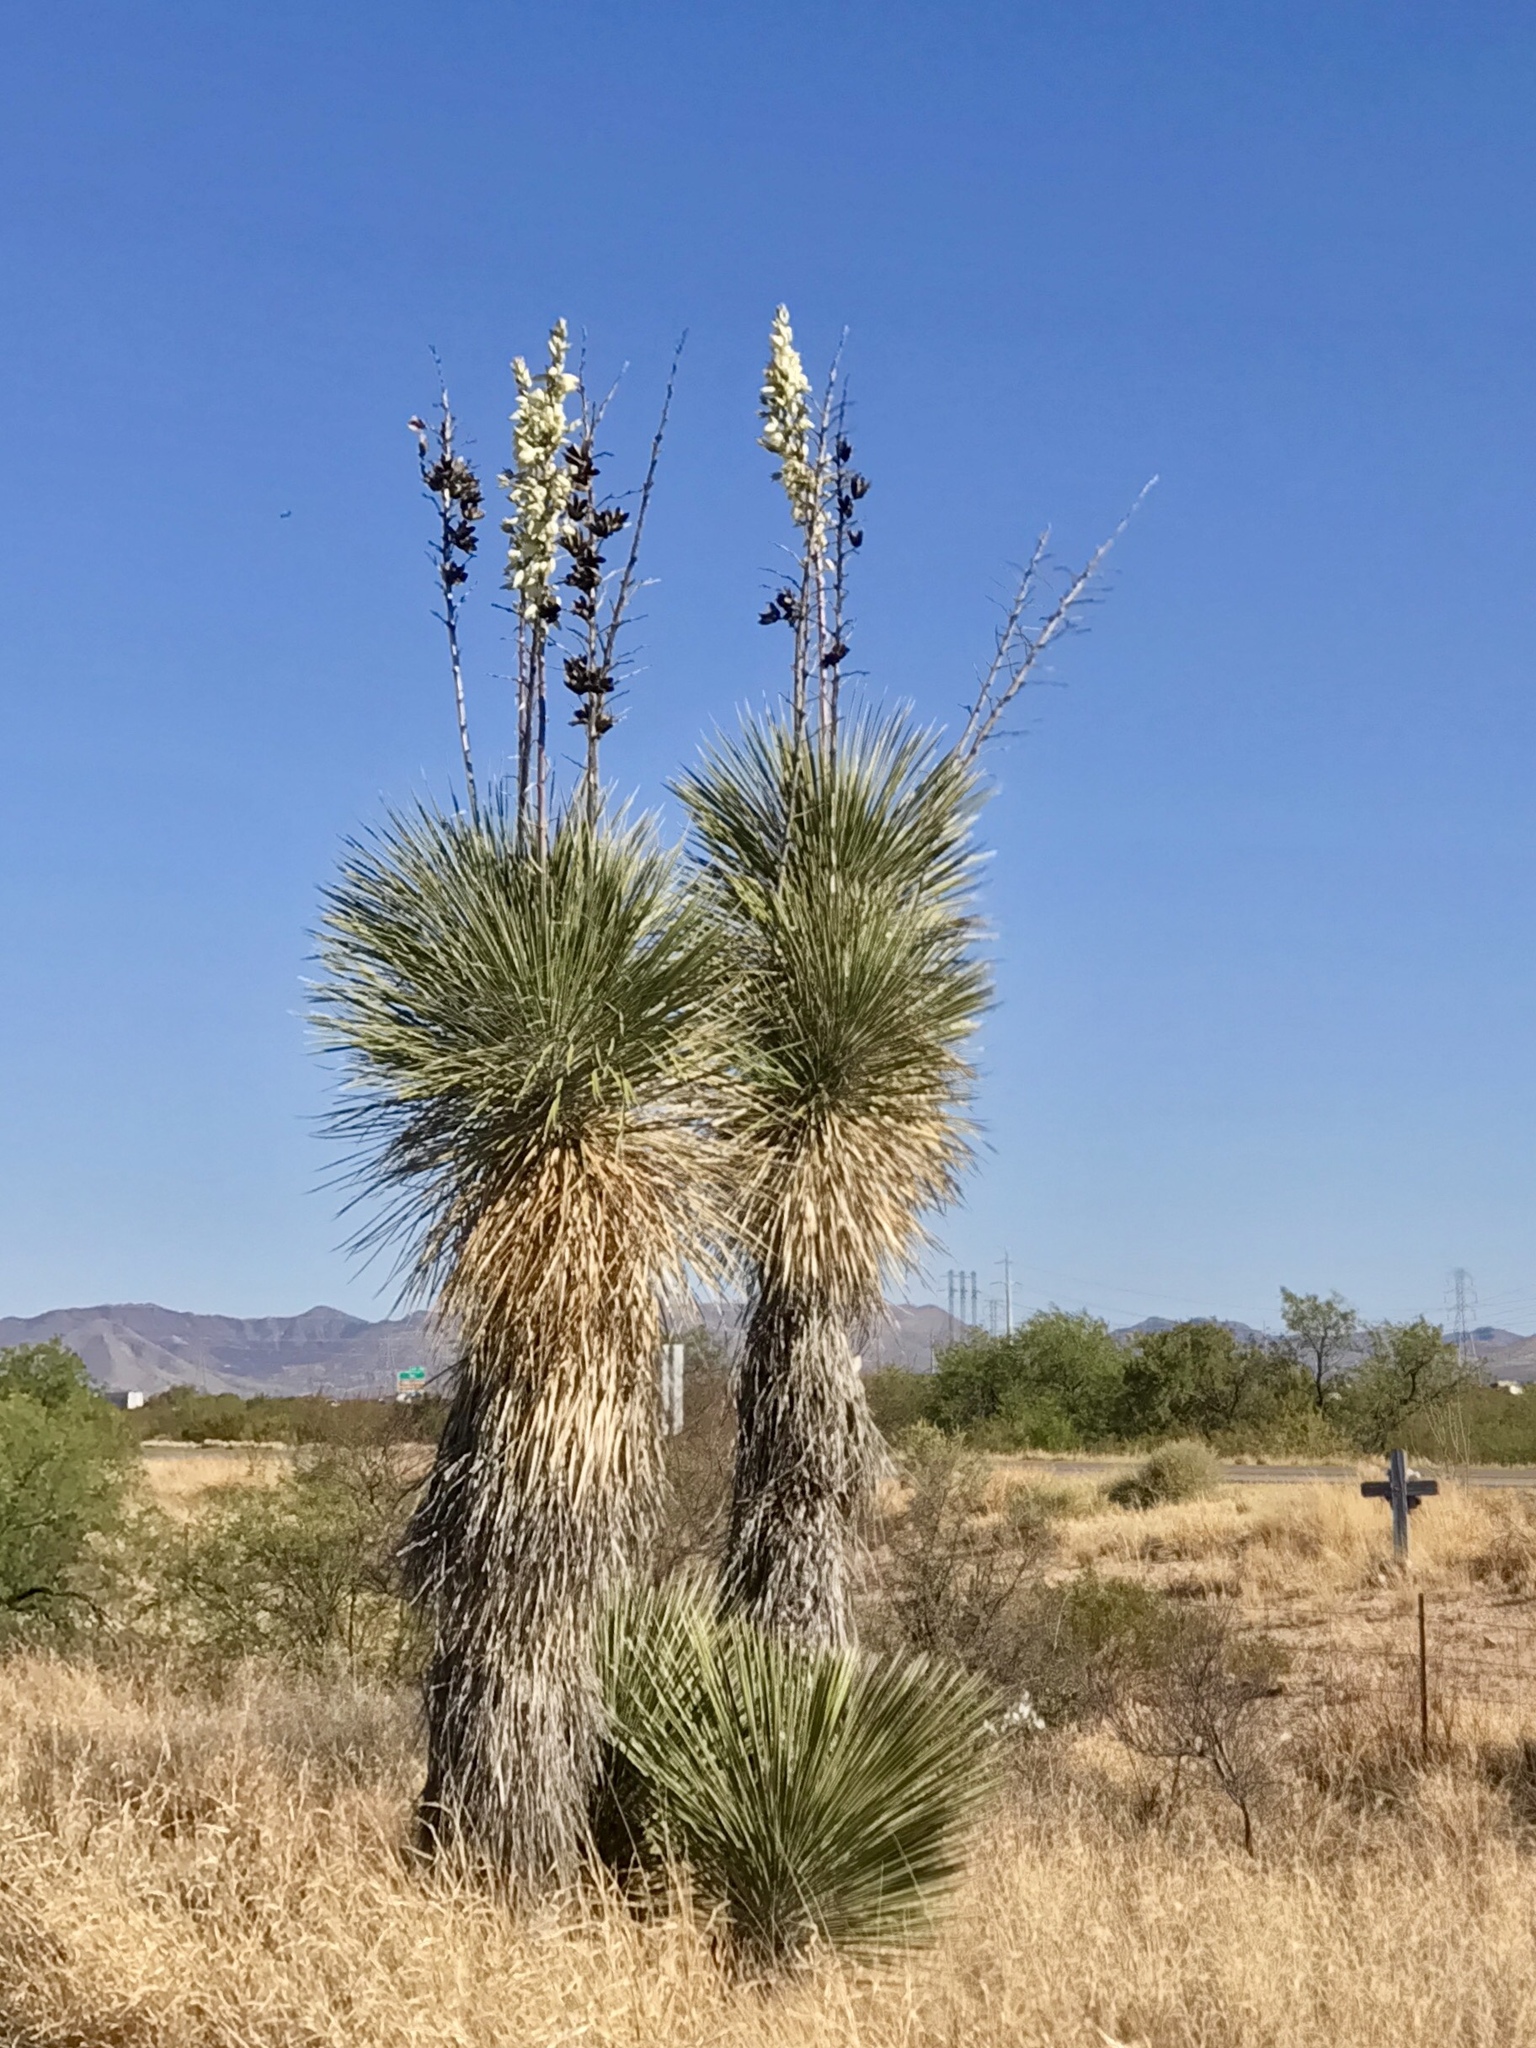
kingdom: Plantae
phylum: Tracheophyta
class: Liliopsida
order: Asparagales
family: Asparagaceae
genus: Yucca
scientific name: Yucca elata
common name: Palmella
